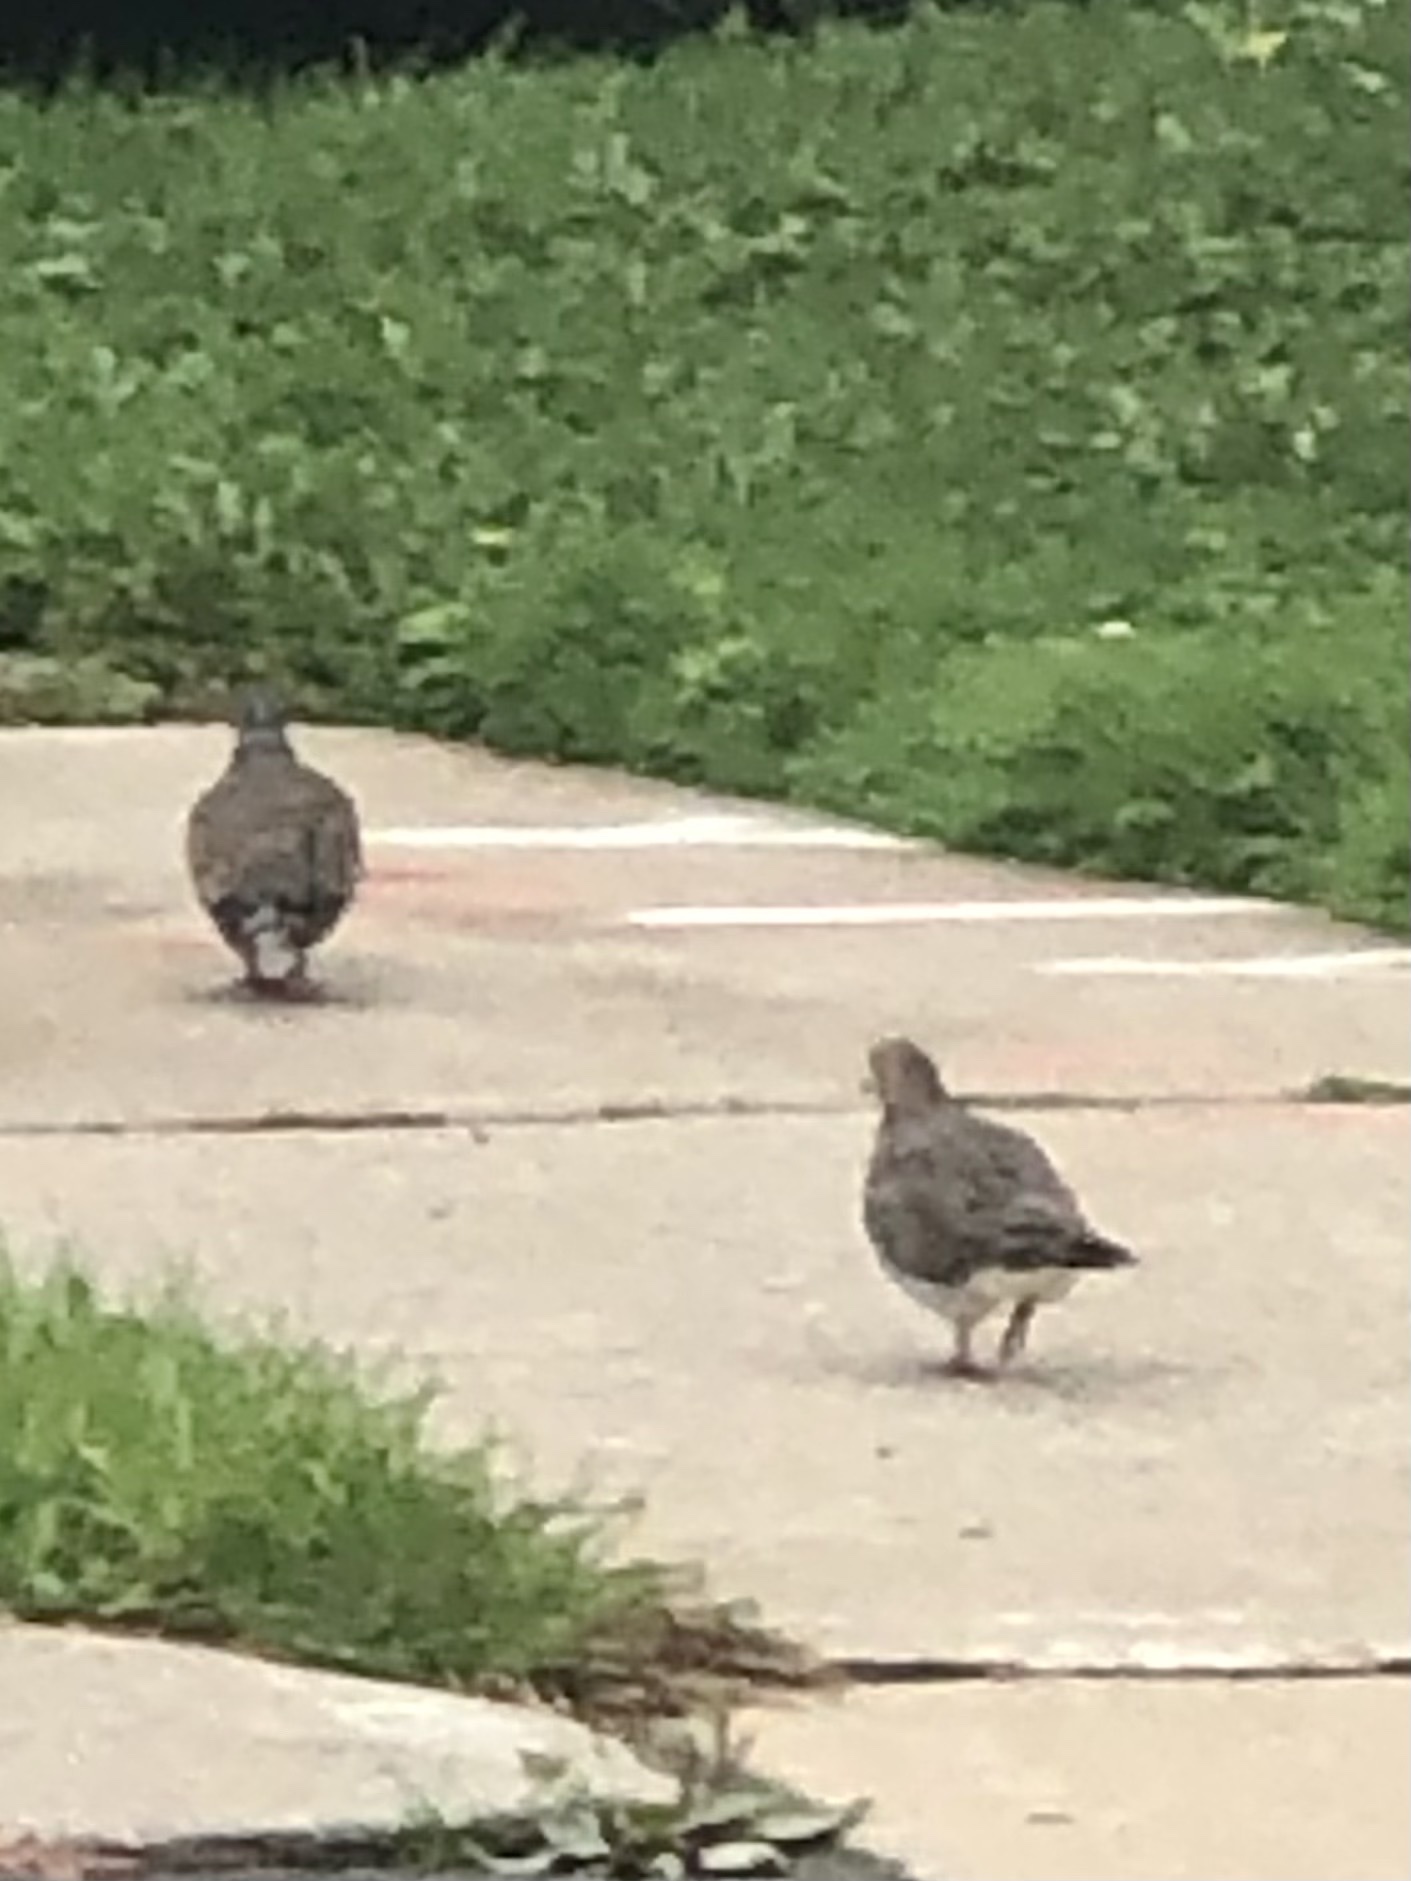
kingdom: Animalia
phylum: Chordata
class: Aves
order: Columbiformes
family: Columbidae
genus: Zenaida
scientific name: Zenaida macroura
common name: Mourning dove
